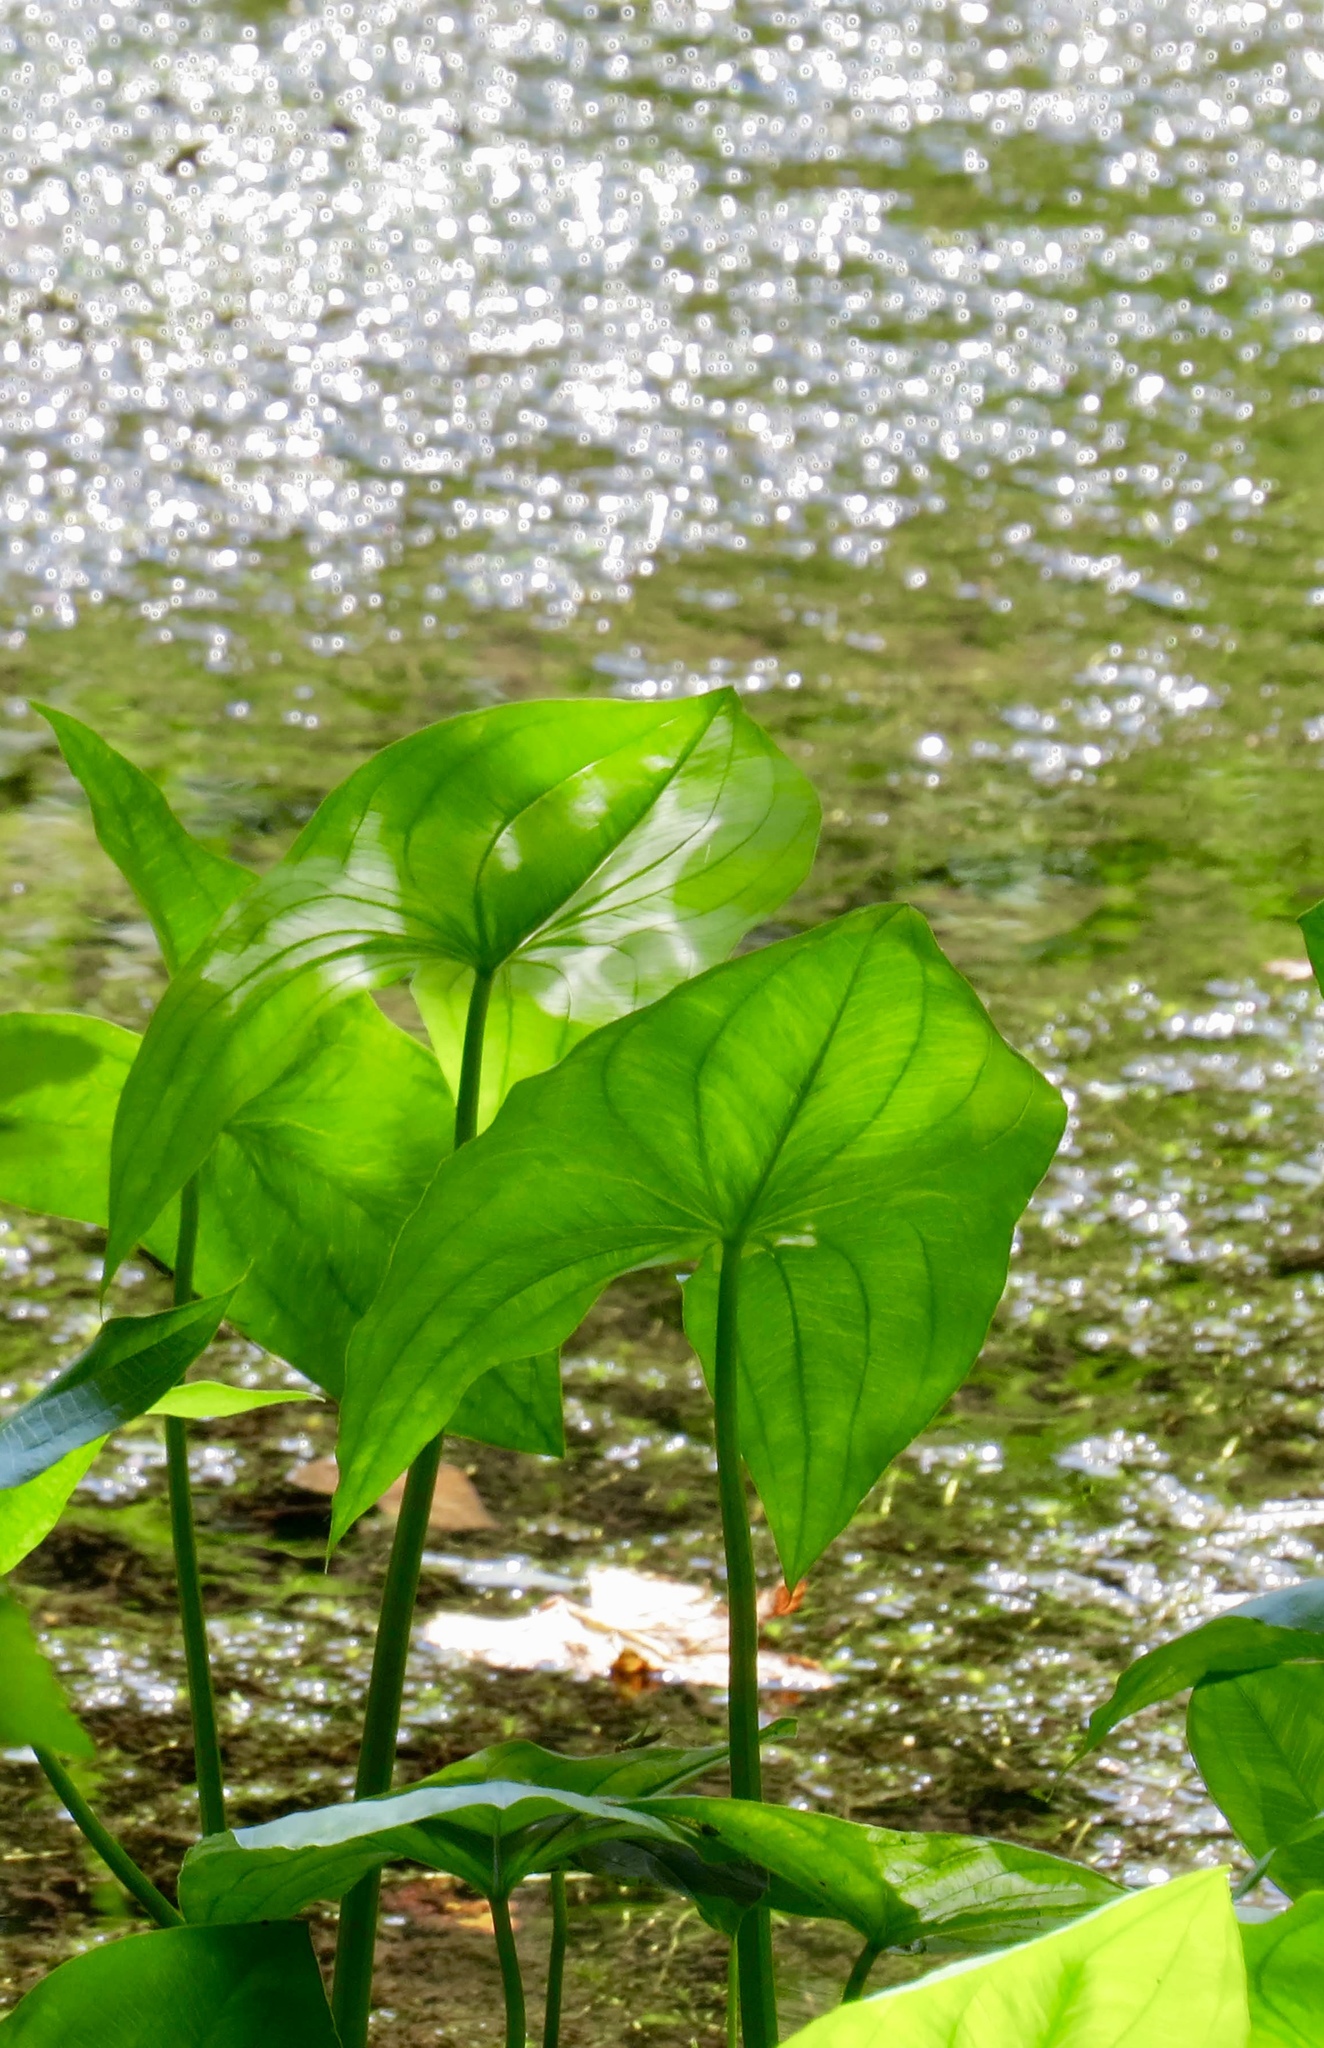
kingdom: Plantae
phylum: Tracheophyta
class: Liliopsida
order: Alismatales
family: Alismataceae
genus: Sagittaria
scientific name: Sagittaria latifolia
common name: Duck-potato
